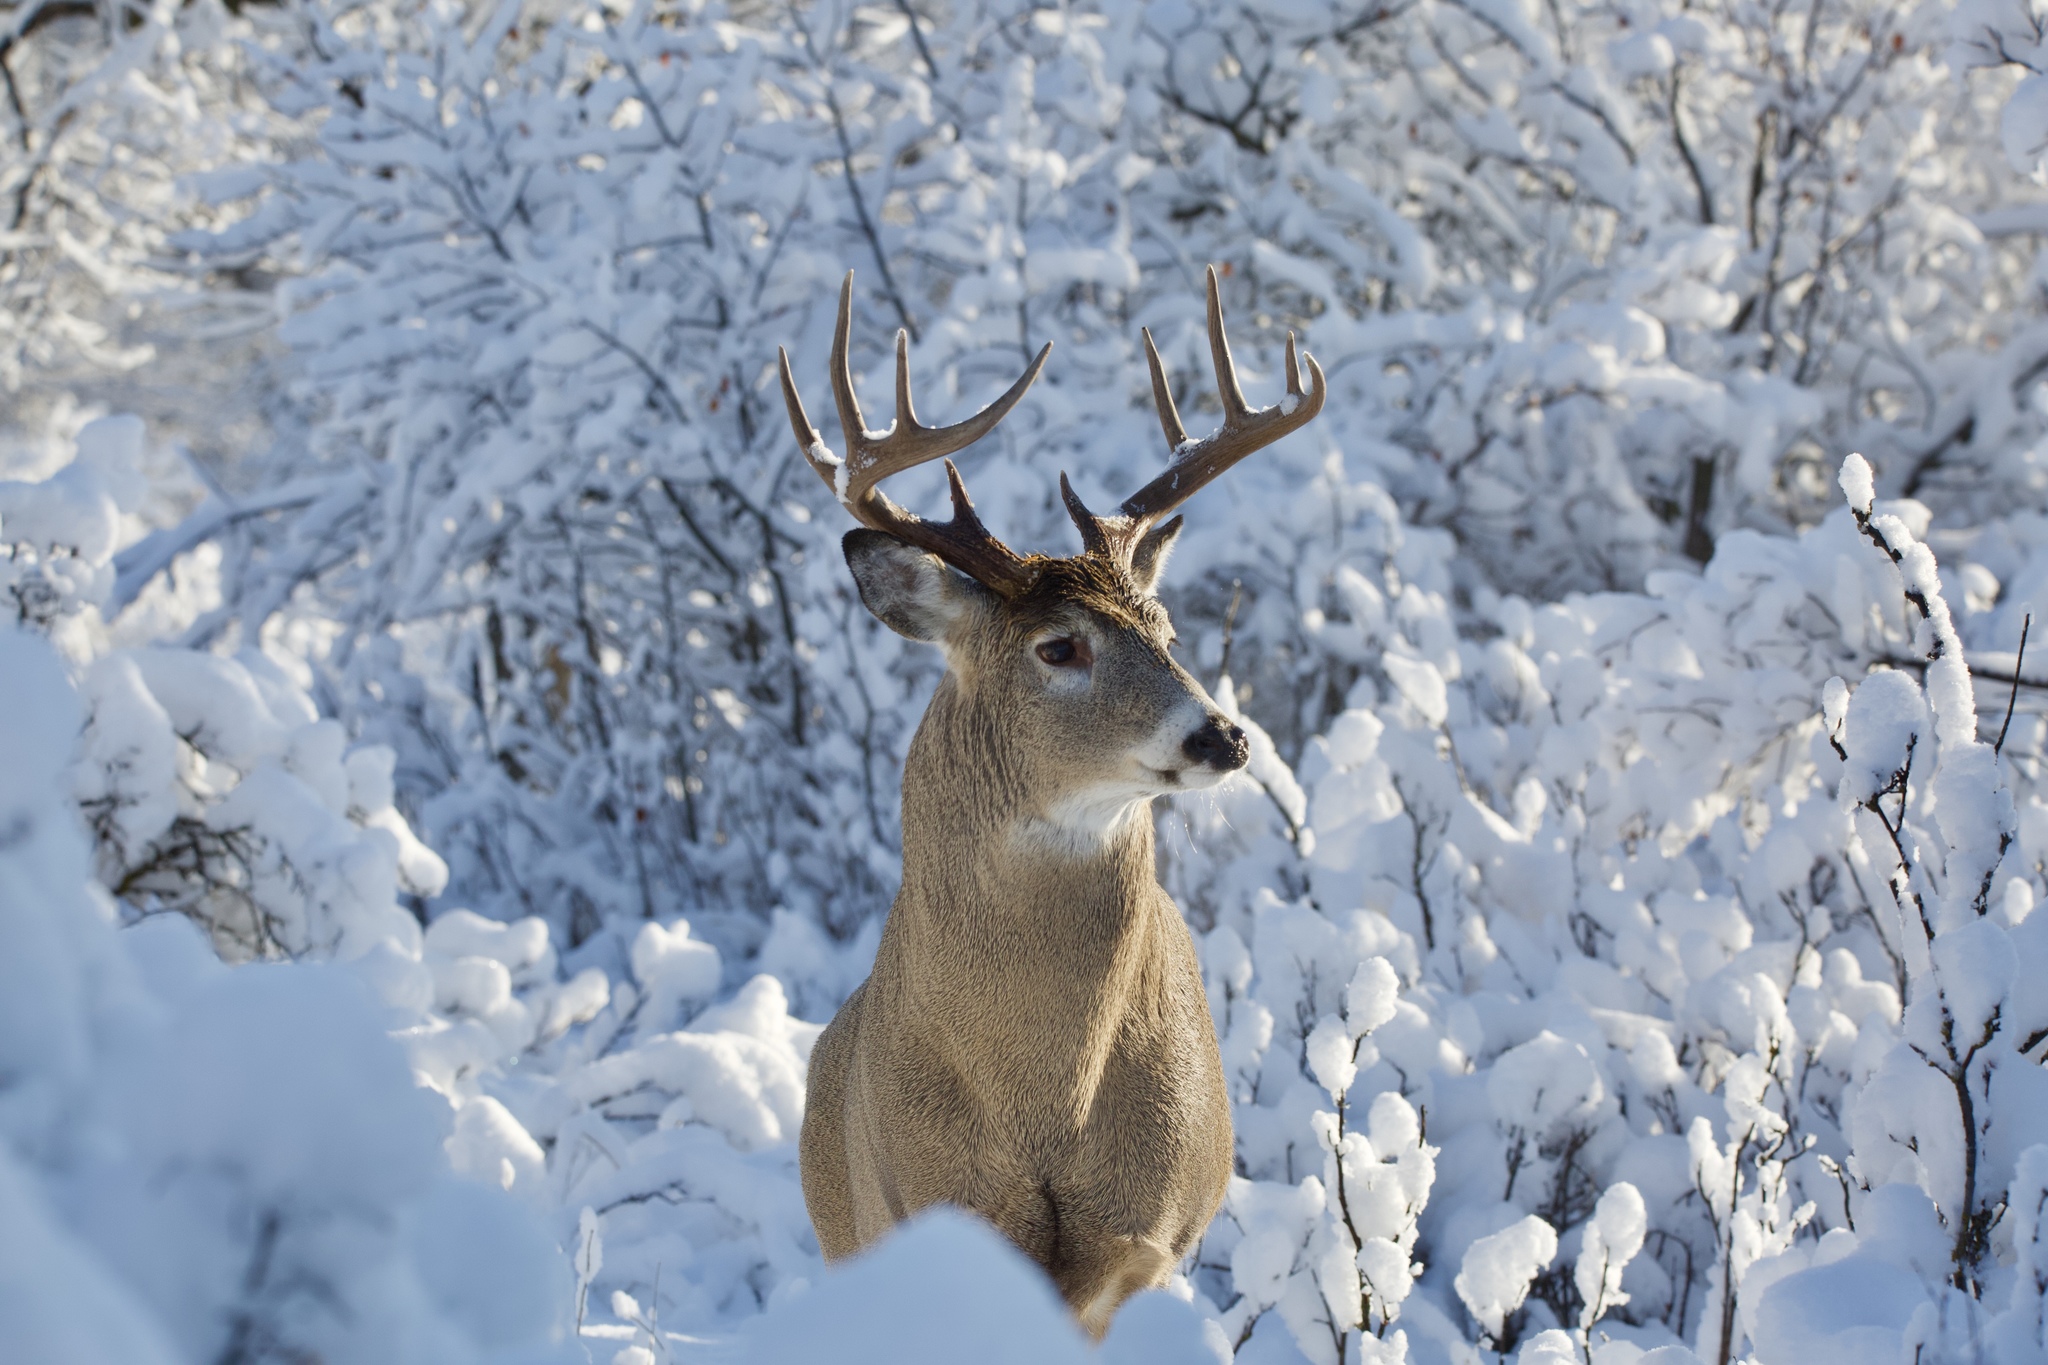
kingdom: Animalia
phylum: Chordata
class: Mammalia
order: Artiodactyla
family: Cervidae
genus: Odocoileus
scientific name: Odocoileus virginianus
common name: White-tailed deer
